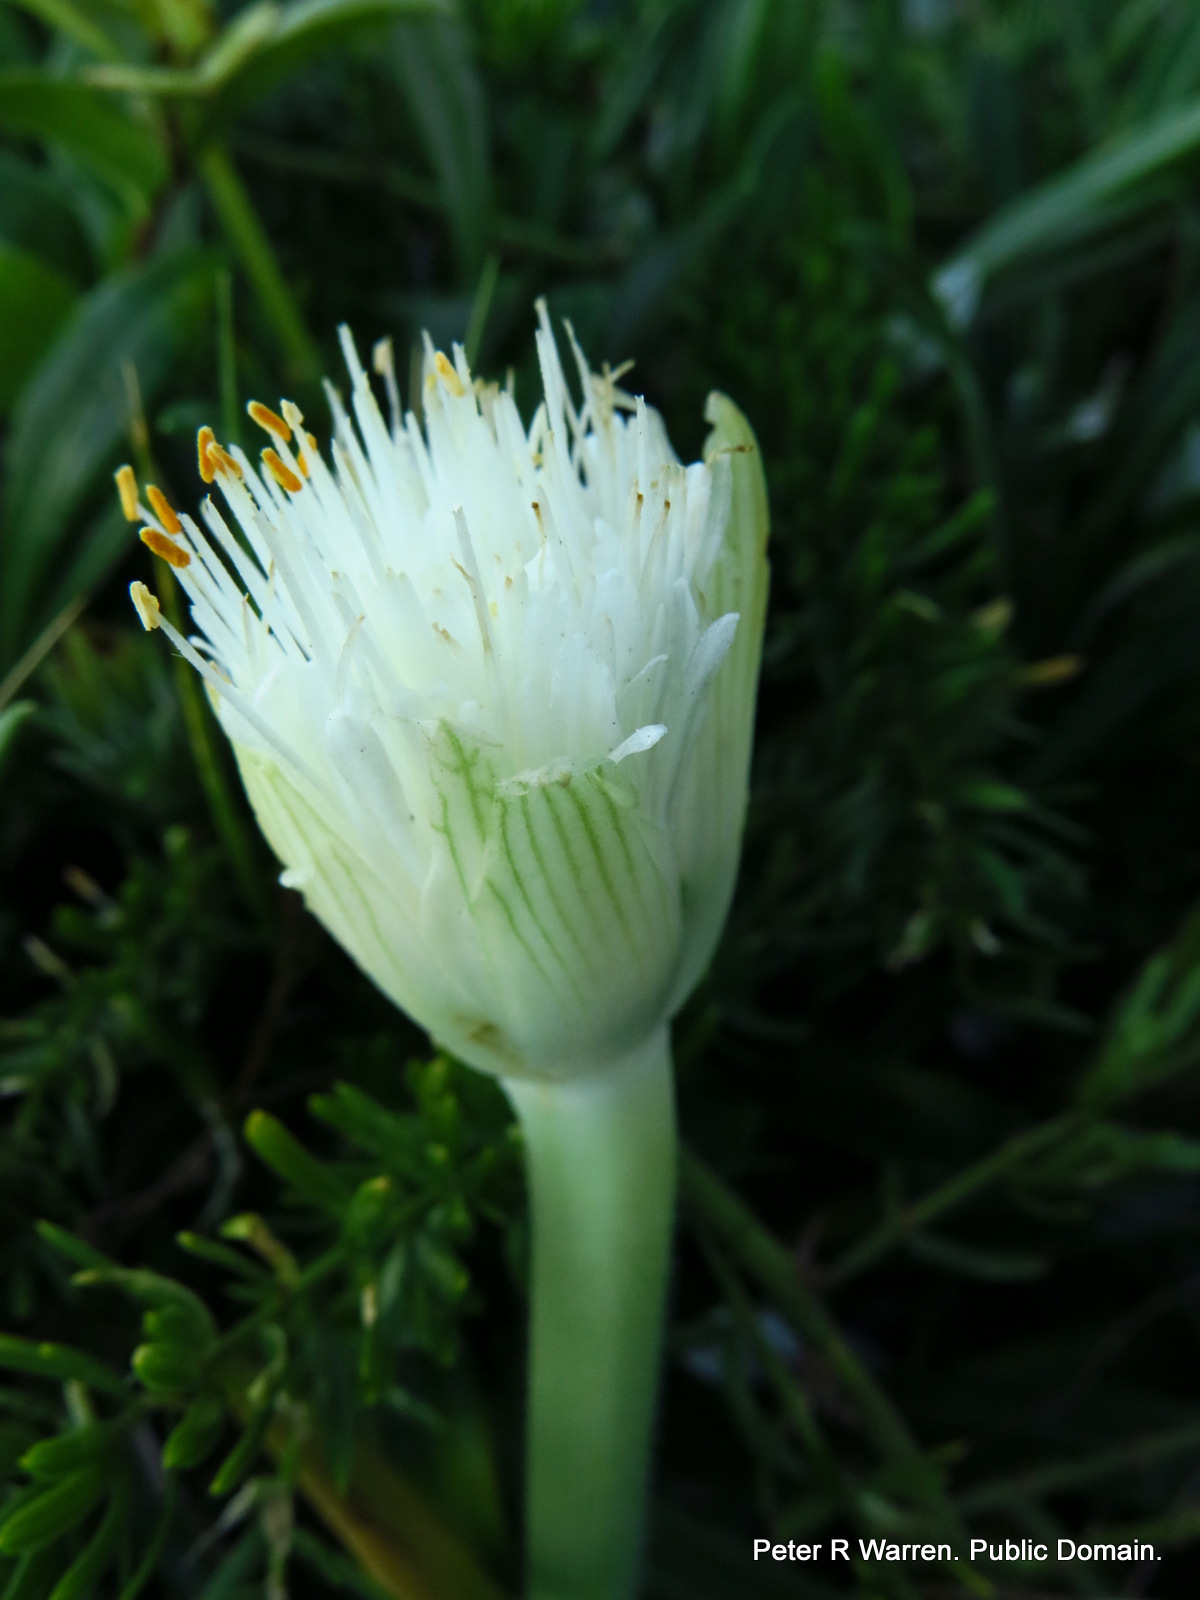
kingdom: Plantae
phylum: Tracheophyta
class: Liliopsida
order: Asparagales
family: Amaryllidaceae
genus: Haemanthus
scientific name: Haemanthus albiflos
